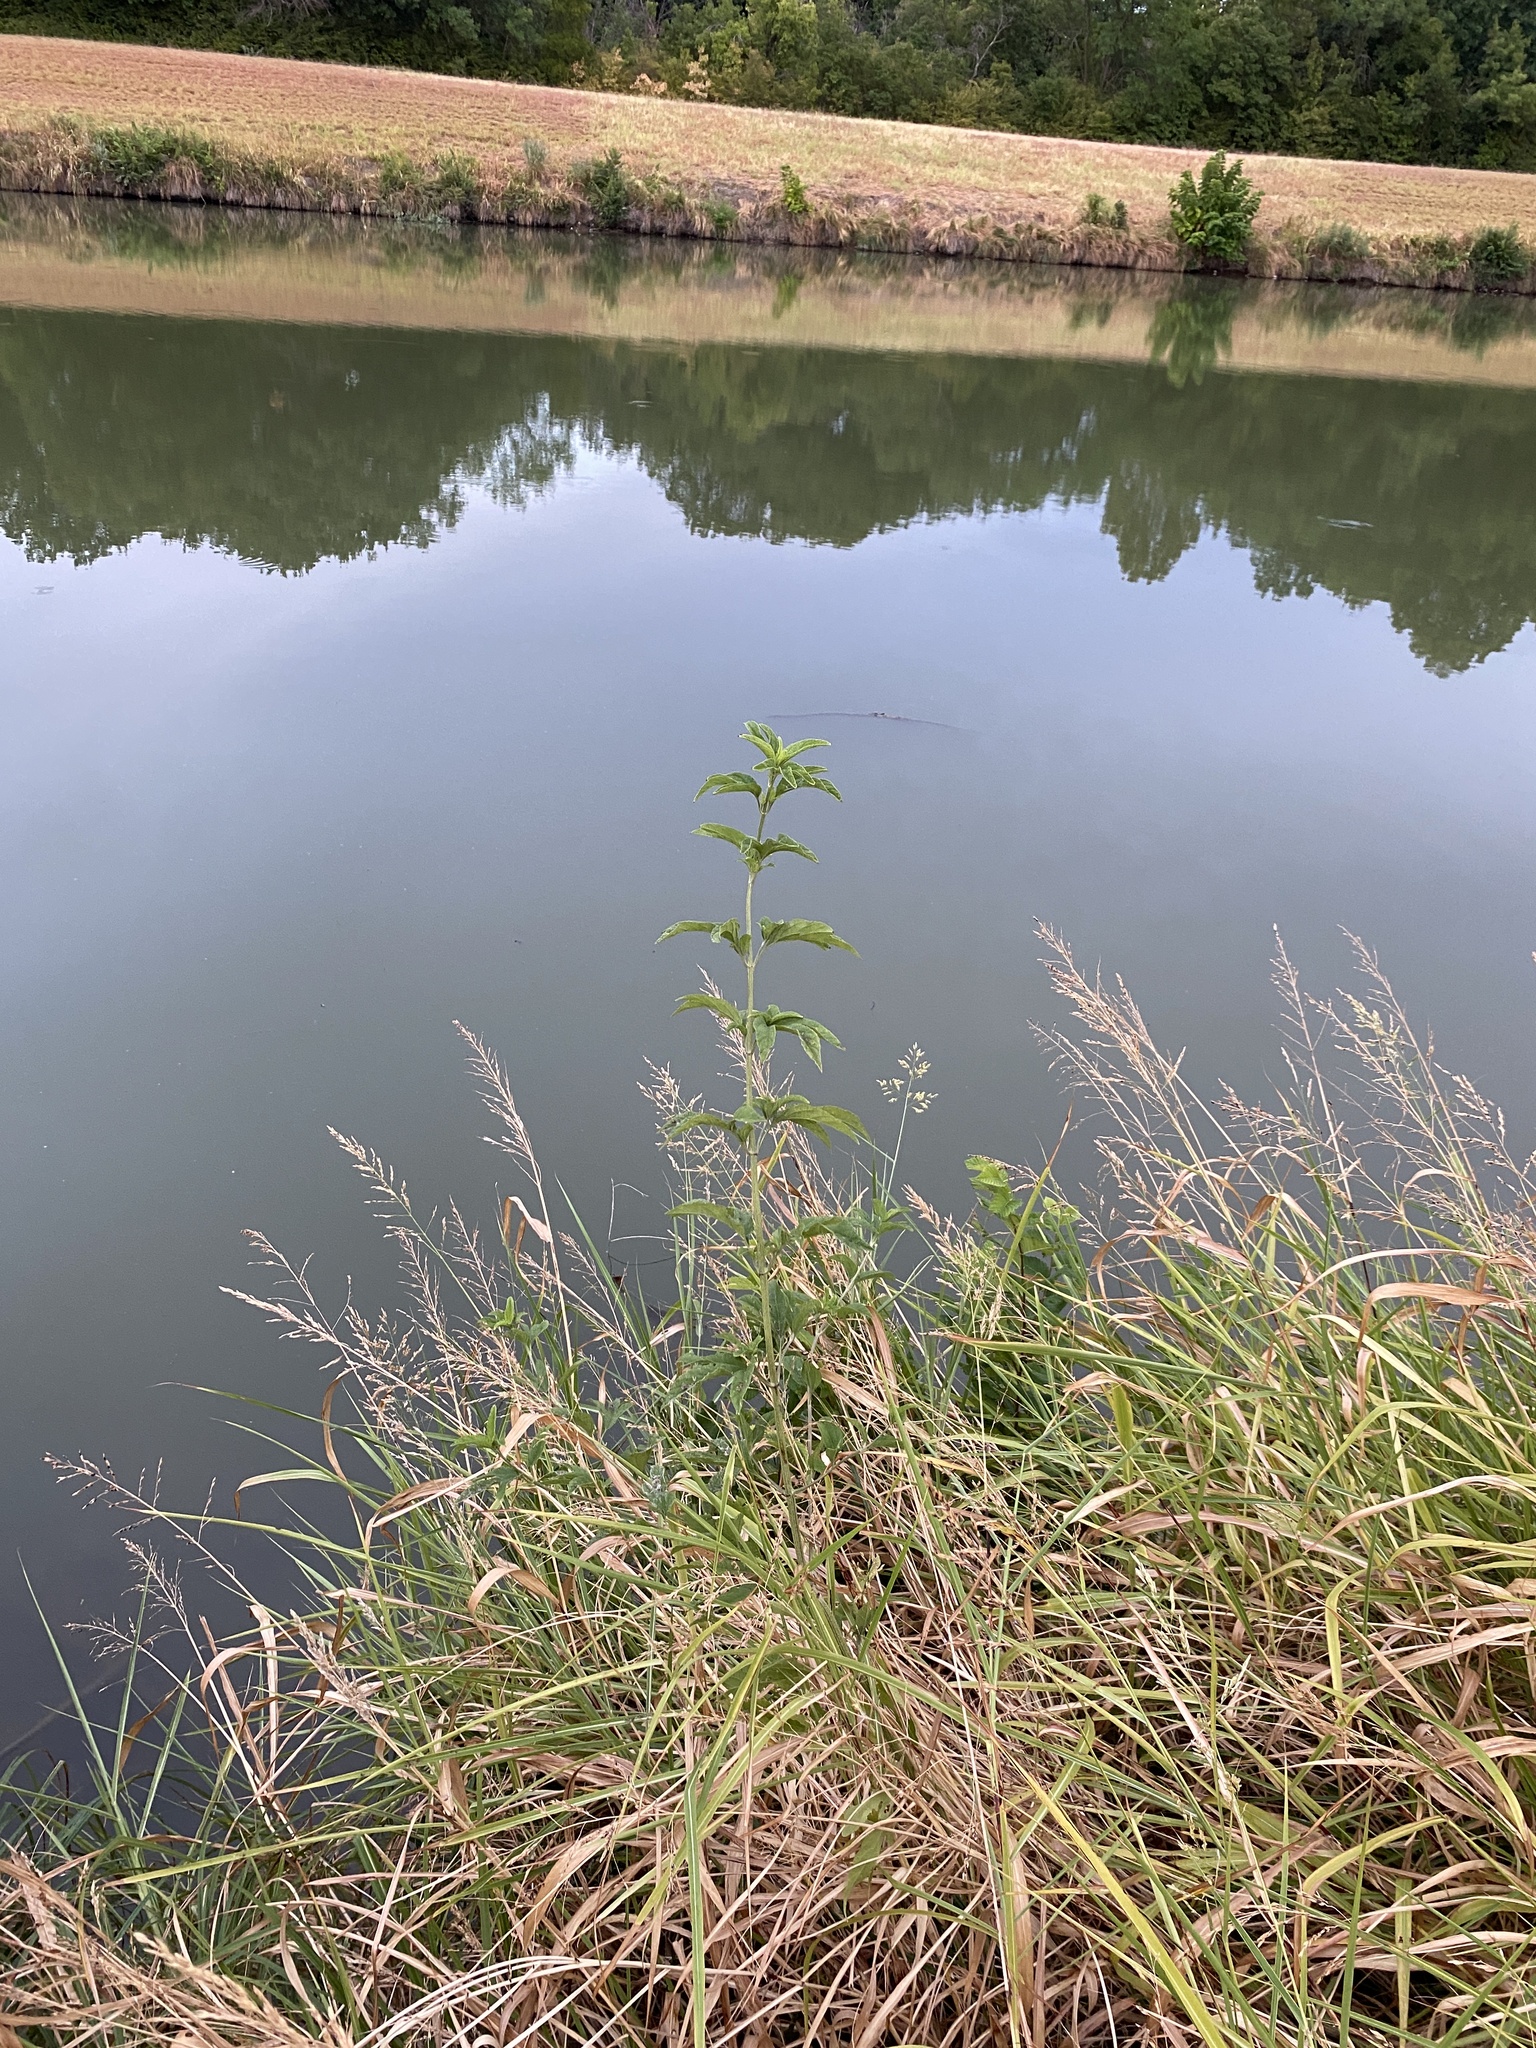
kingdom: Plantae
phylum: Tracheophyta
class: Magnoliopsida
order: Asterales
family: Asteraceae
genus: Ambrosia
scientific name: Ambrosia trifida
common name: Giant ragweed
